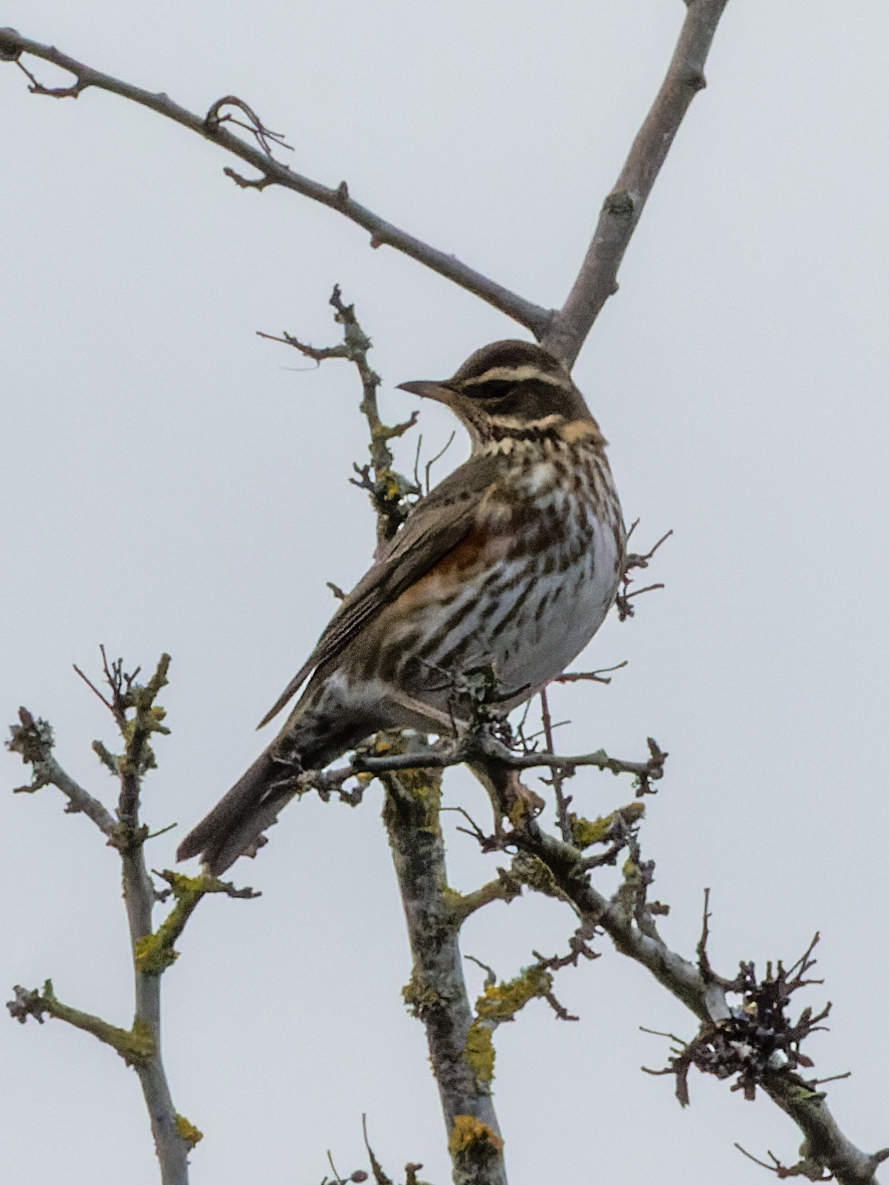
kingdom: Animalia
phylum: Chordata
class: Aves
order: Passeriformes
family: Turdidae
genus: Turdus
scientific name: Turdus iliacus
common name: Redwing
